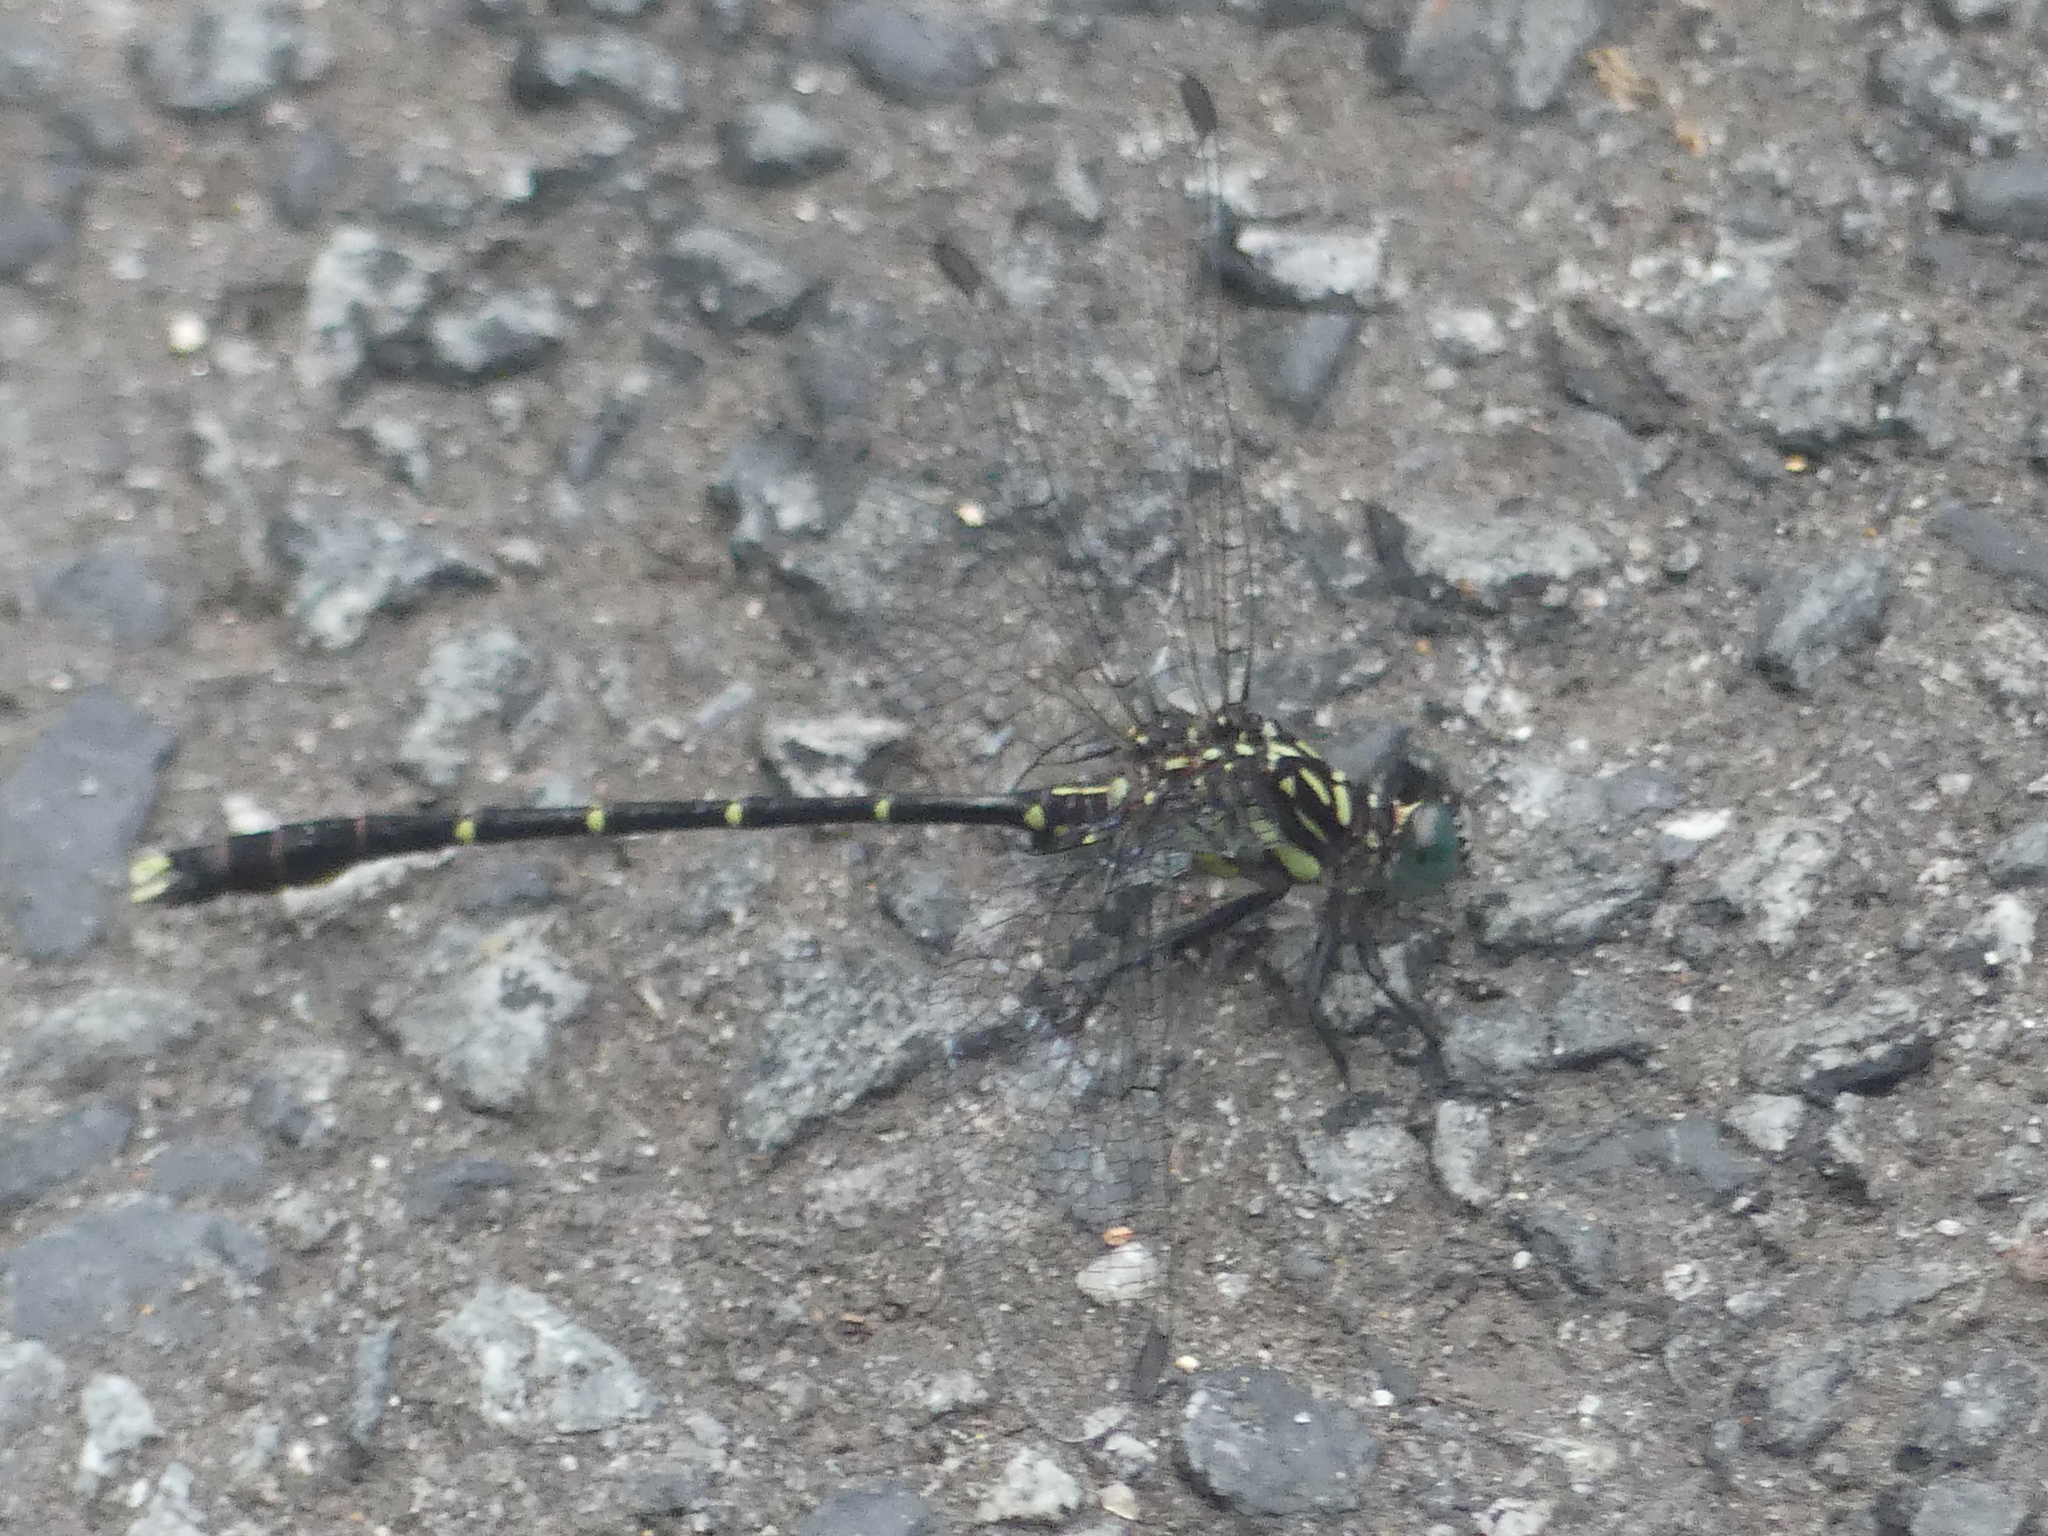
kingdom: Animalia
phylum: Arthropoda
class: Insecta
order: Odonata
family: Gomphidae
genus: Hemigomphus
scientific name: Hemigomphus theischingeri
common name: Rainforest vicetail
